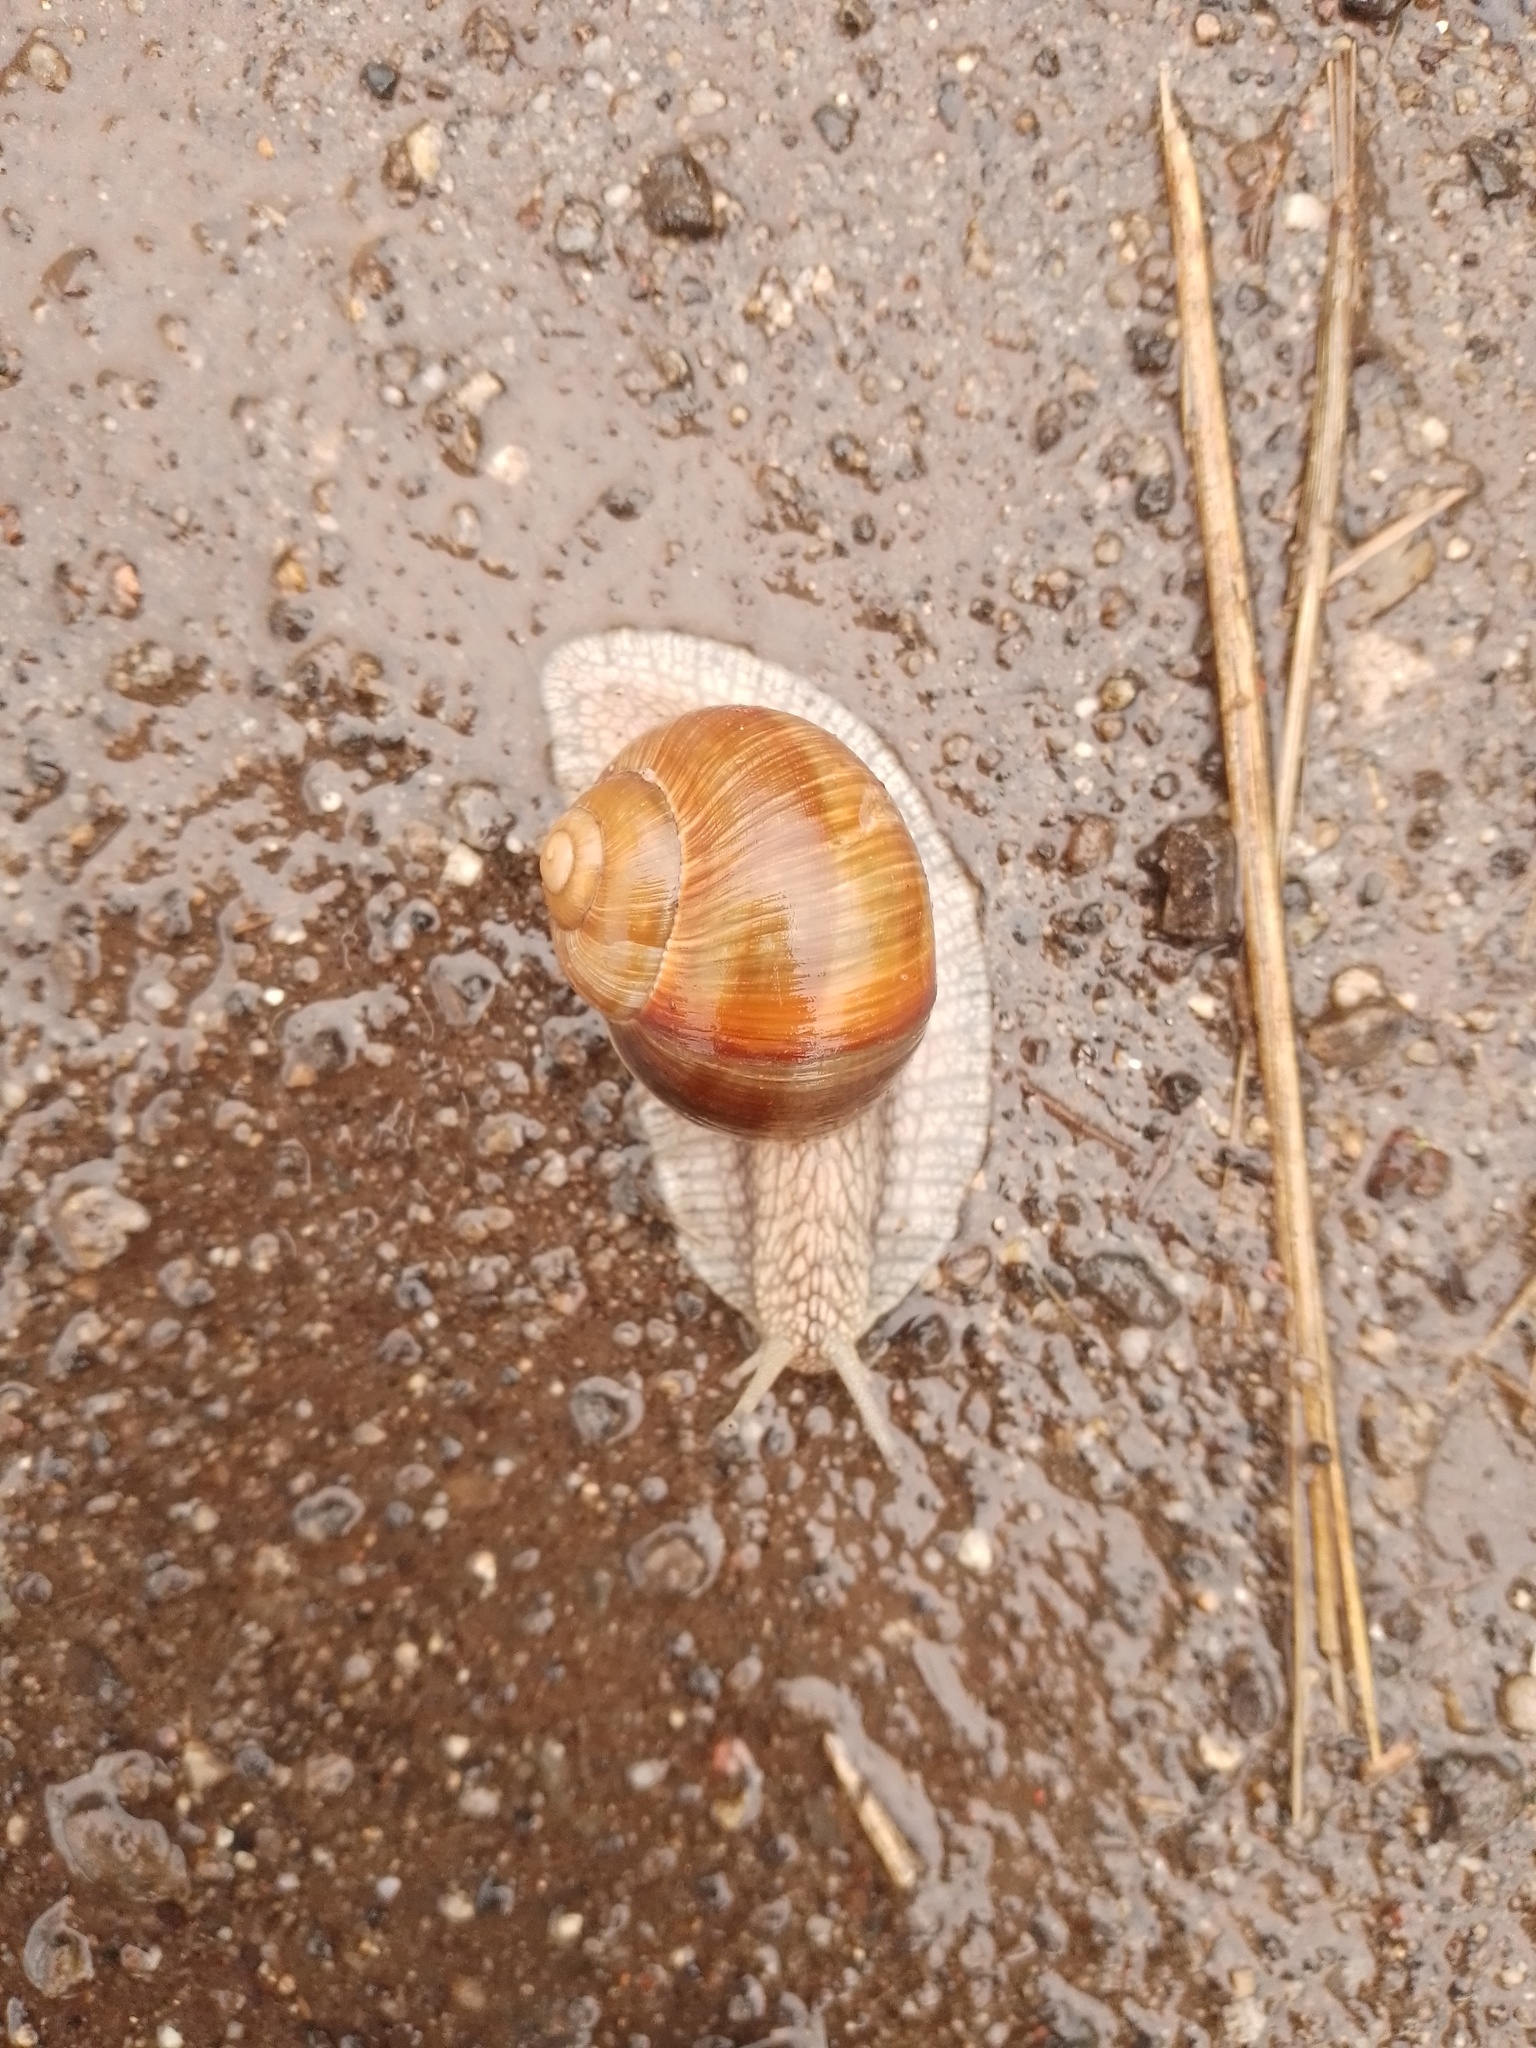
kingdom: Animalia
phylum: Mollusca
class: Gastropoda
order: Stylommatophora
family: Helicidae
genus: Helix
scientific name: Helix pomatia
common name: Roman snail
